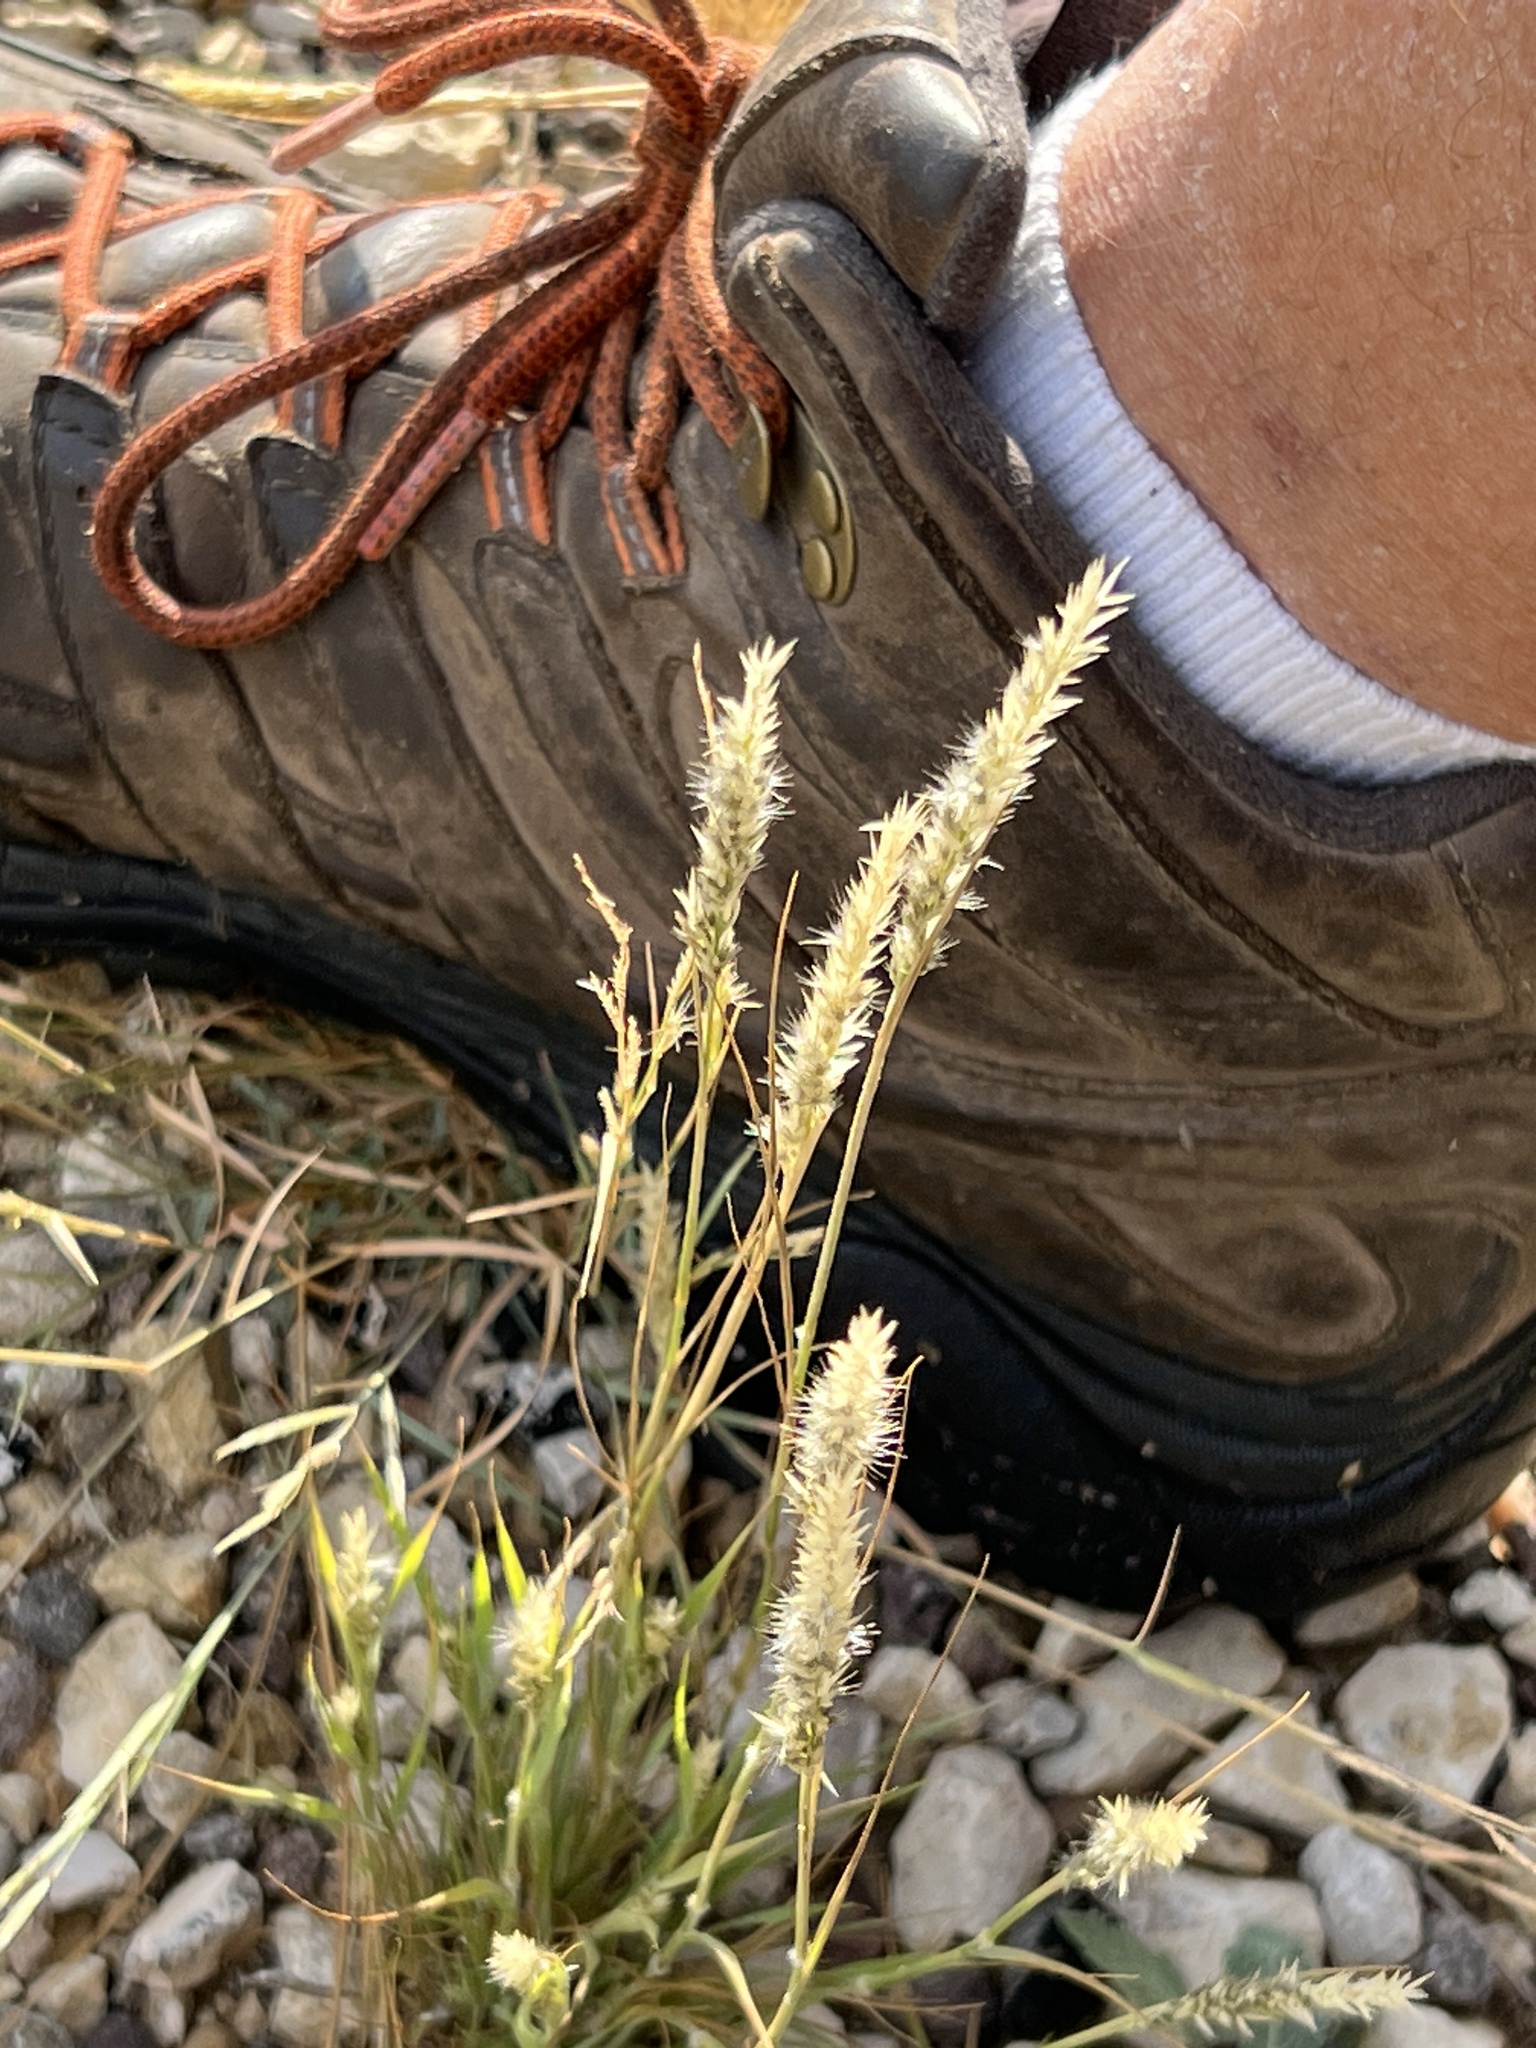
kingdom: Plantae
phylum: Tracheophyta
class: Liliopsida
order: Poales
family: Poaceae
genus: Muhlenbergia
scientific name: Muhlenbergia phleoides
